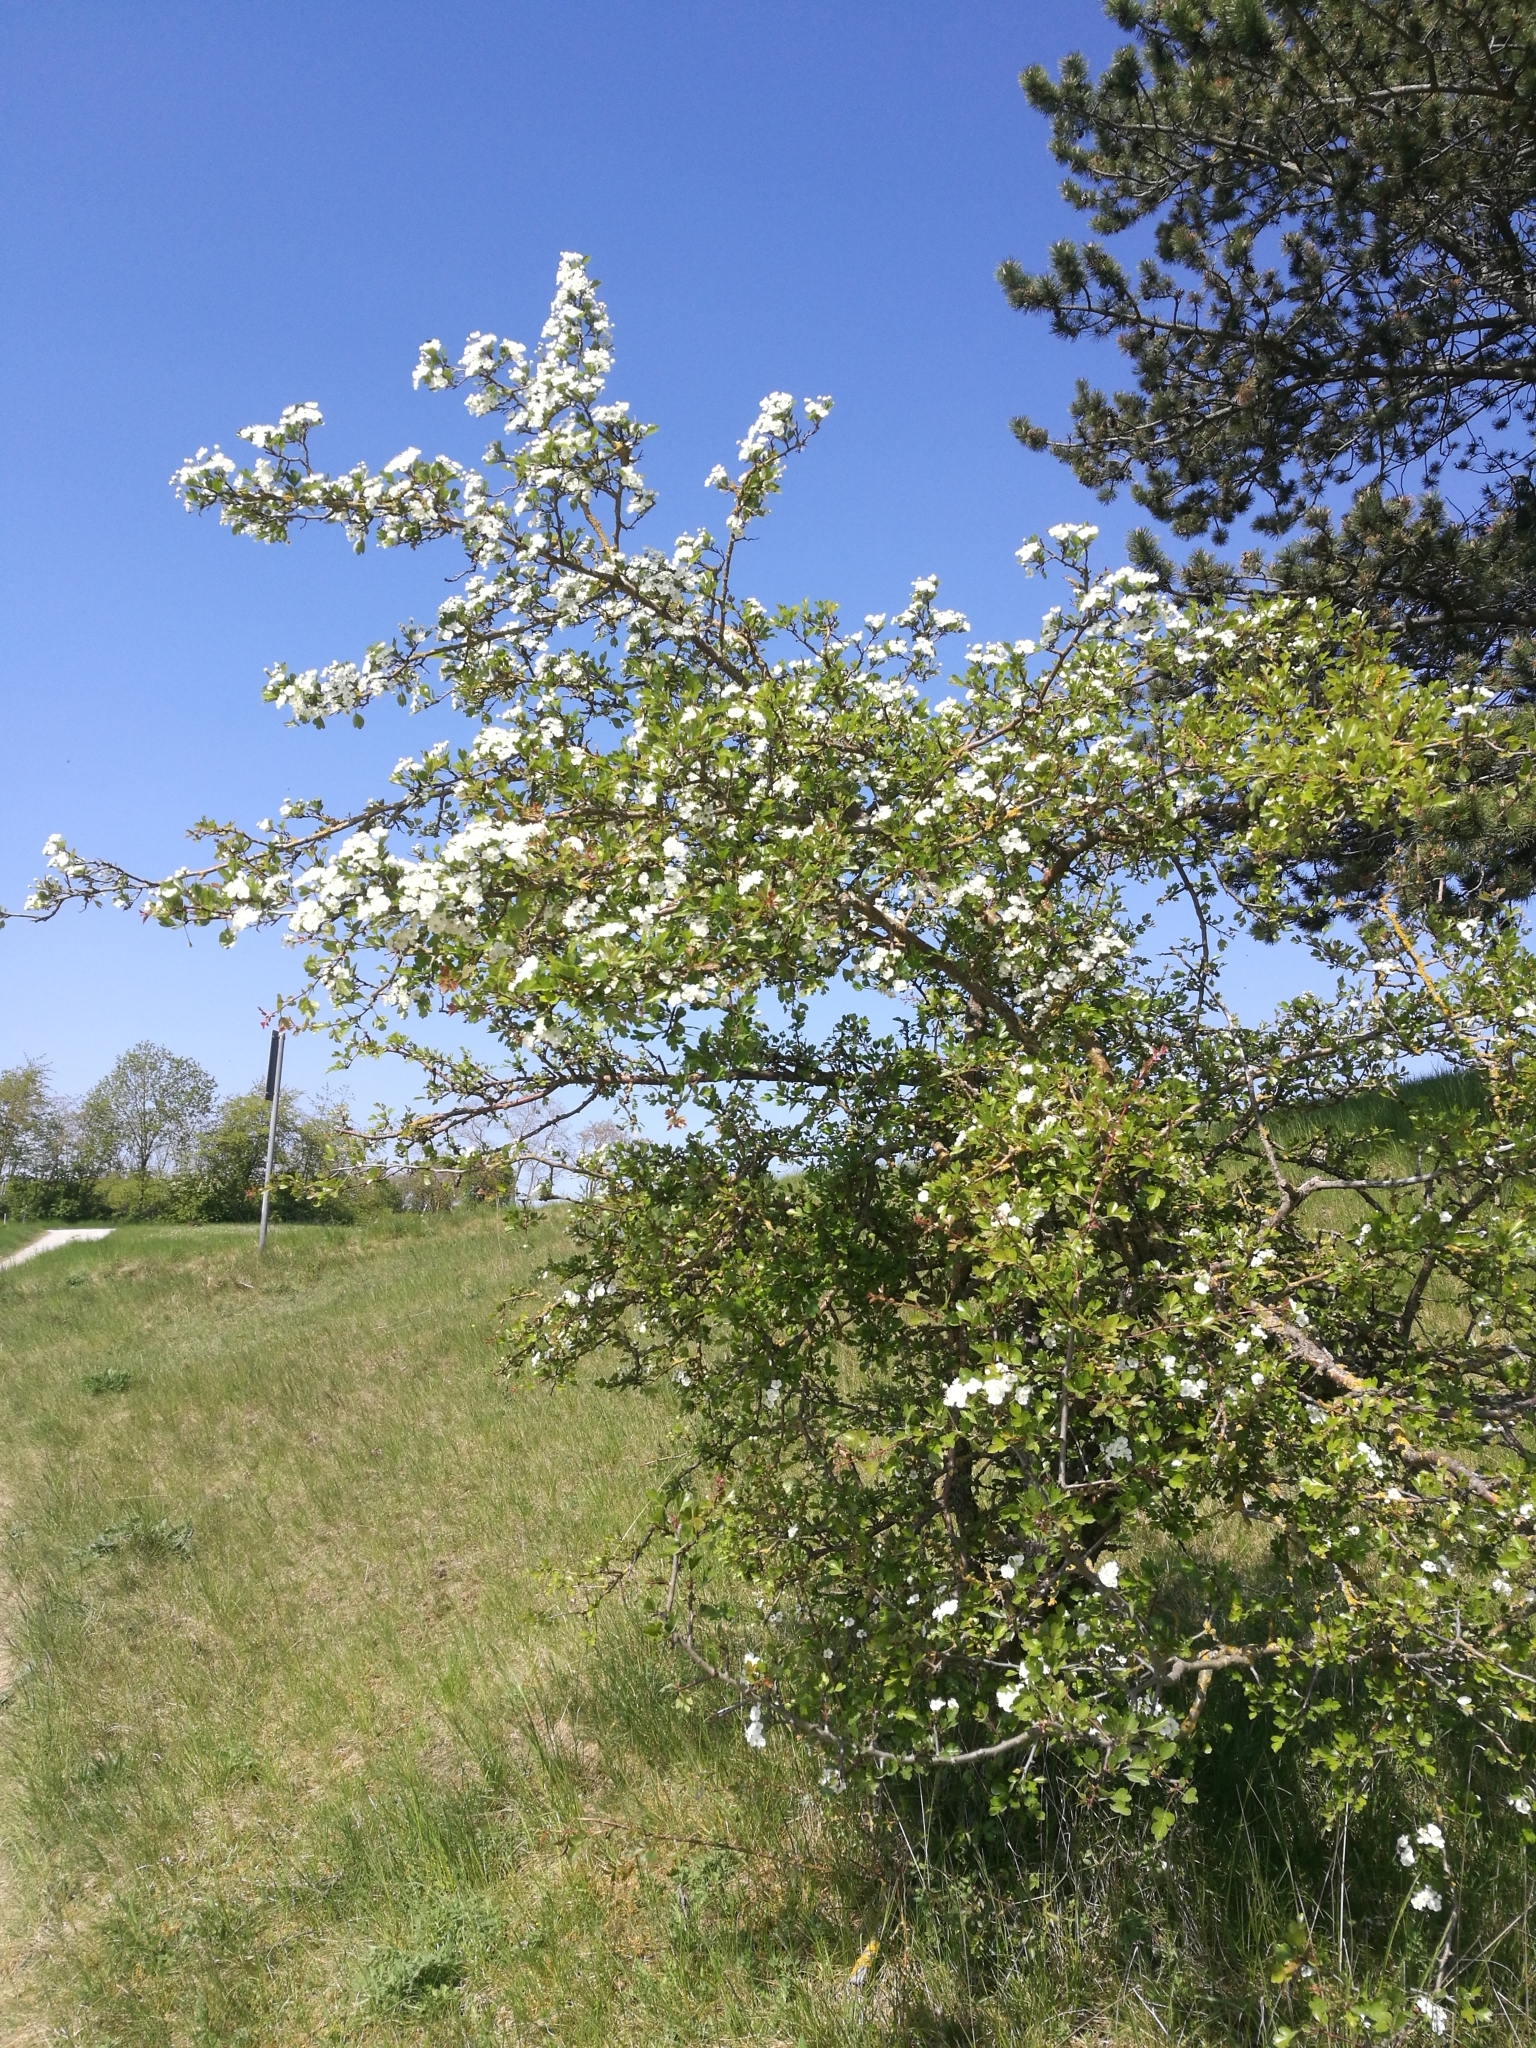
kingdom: Plantae
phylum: Tracheophyta
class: Magnoliopsida
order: Rosales
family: Rosaceae
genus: Crataegus
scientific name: Crataegus laevigata
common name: Midland hawthorn
